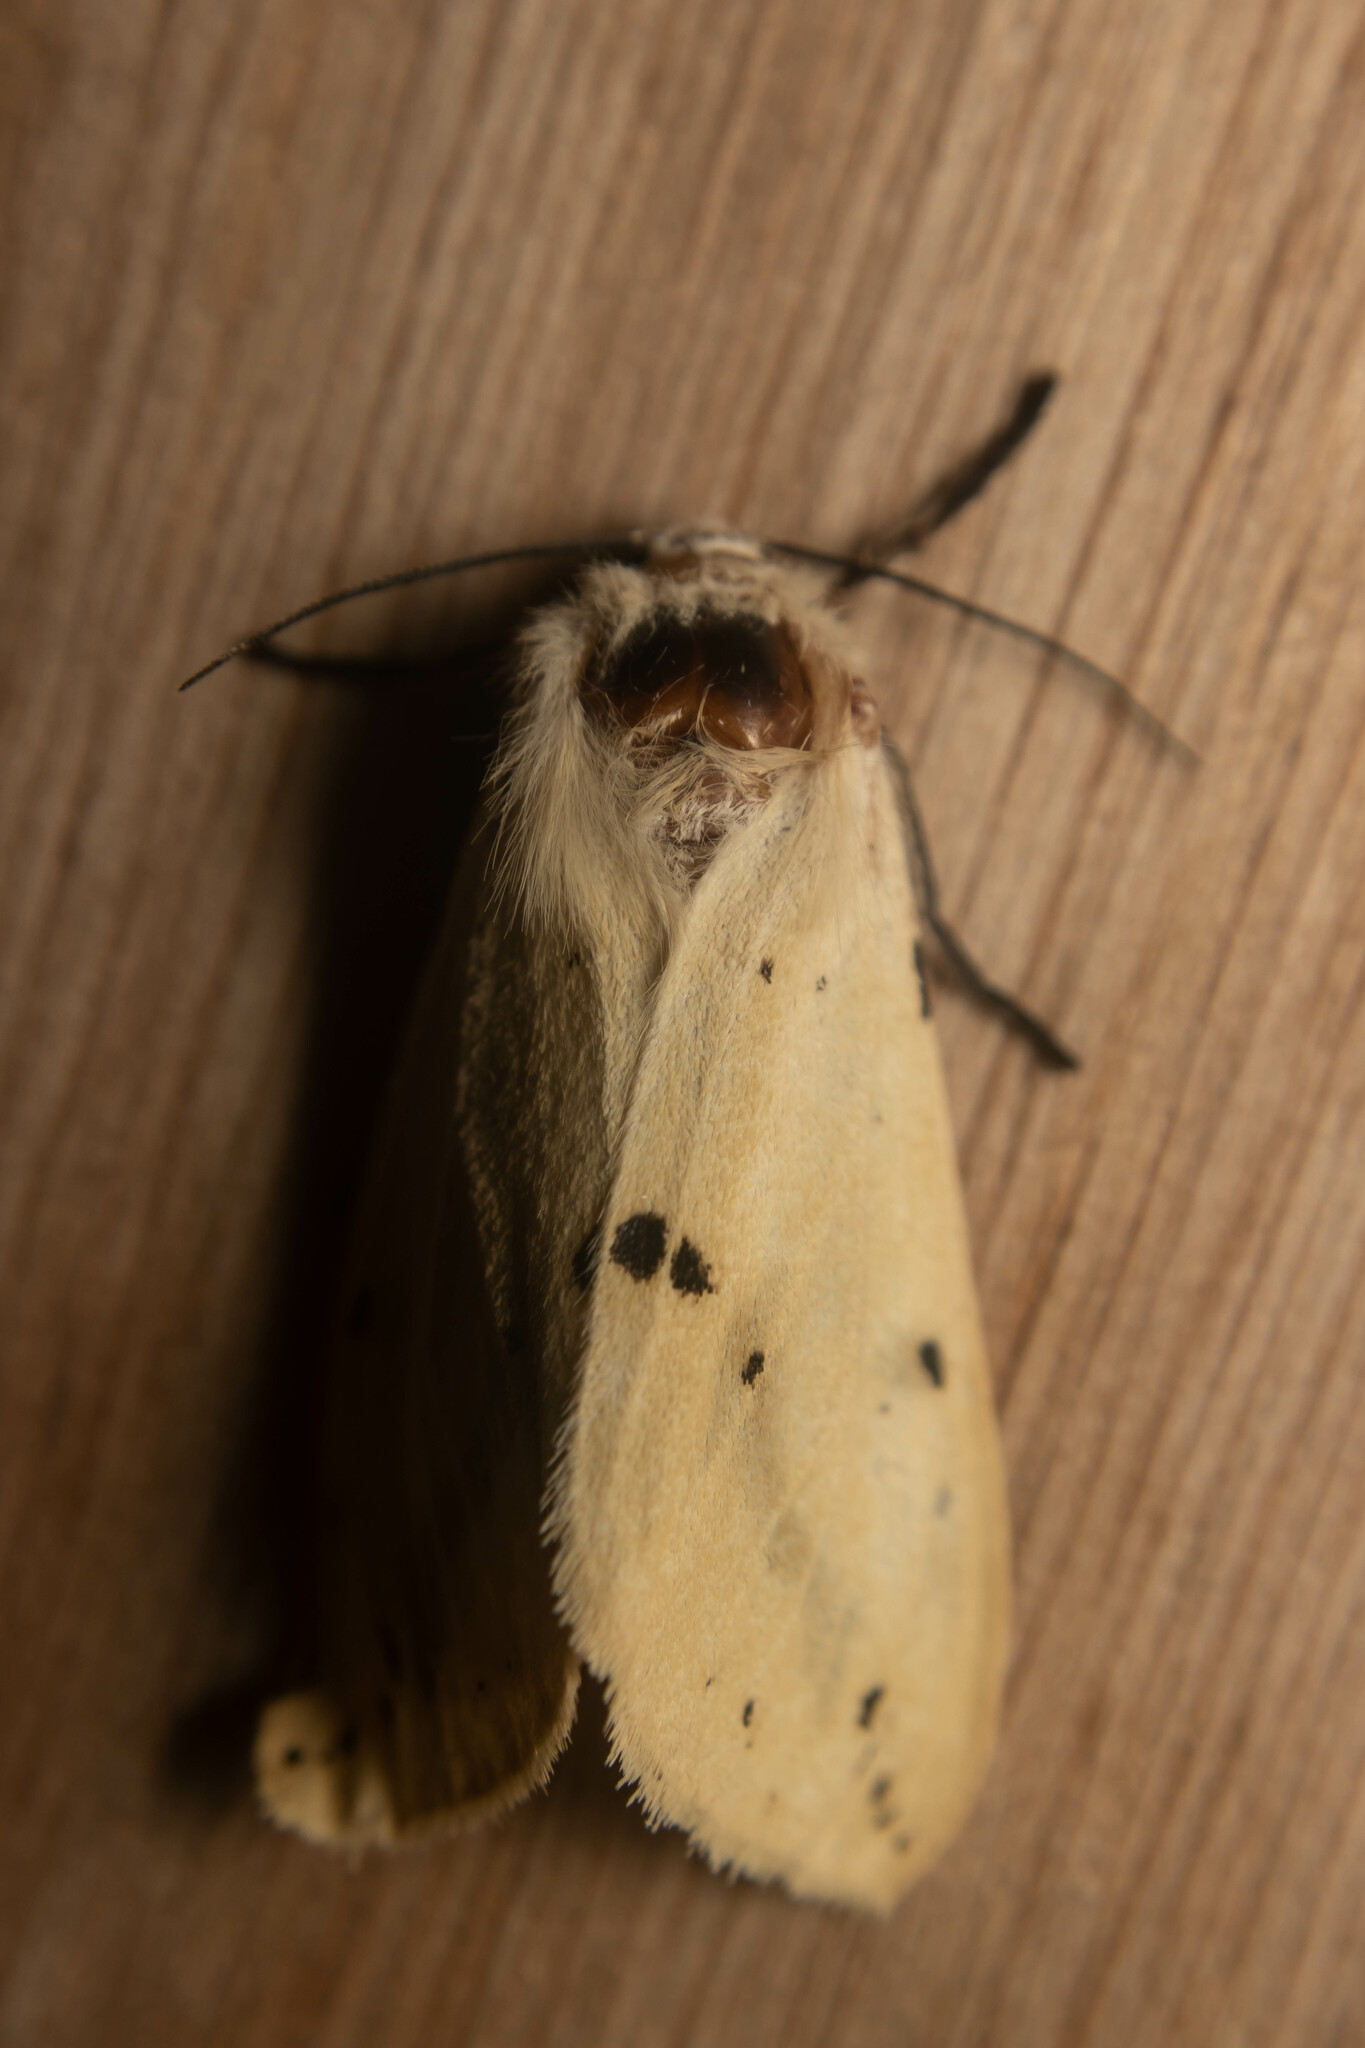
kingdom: Animalia
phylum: Arthropoda
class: Insecta
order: Lepidoptera
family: Erebidae
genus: Spilarctia
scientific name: Spilarctia lutea
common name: Buff ermine
